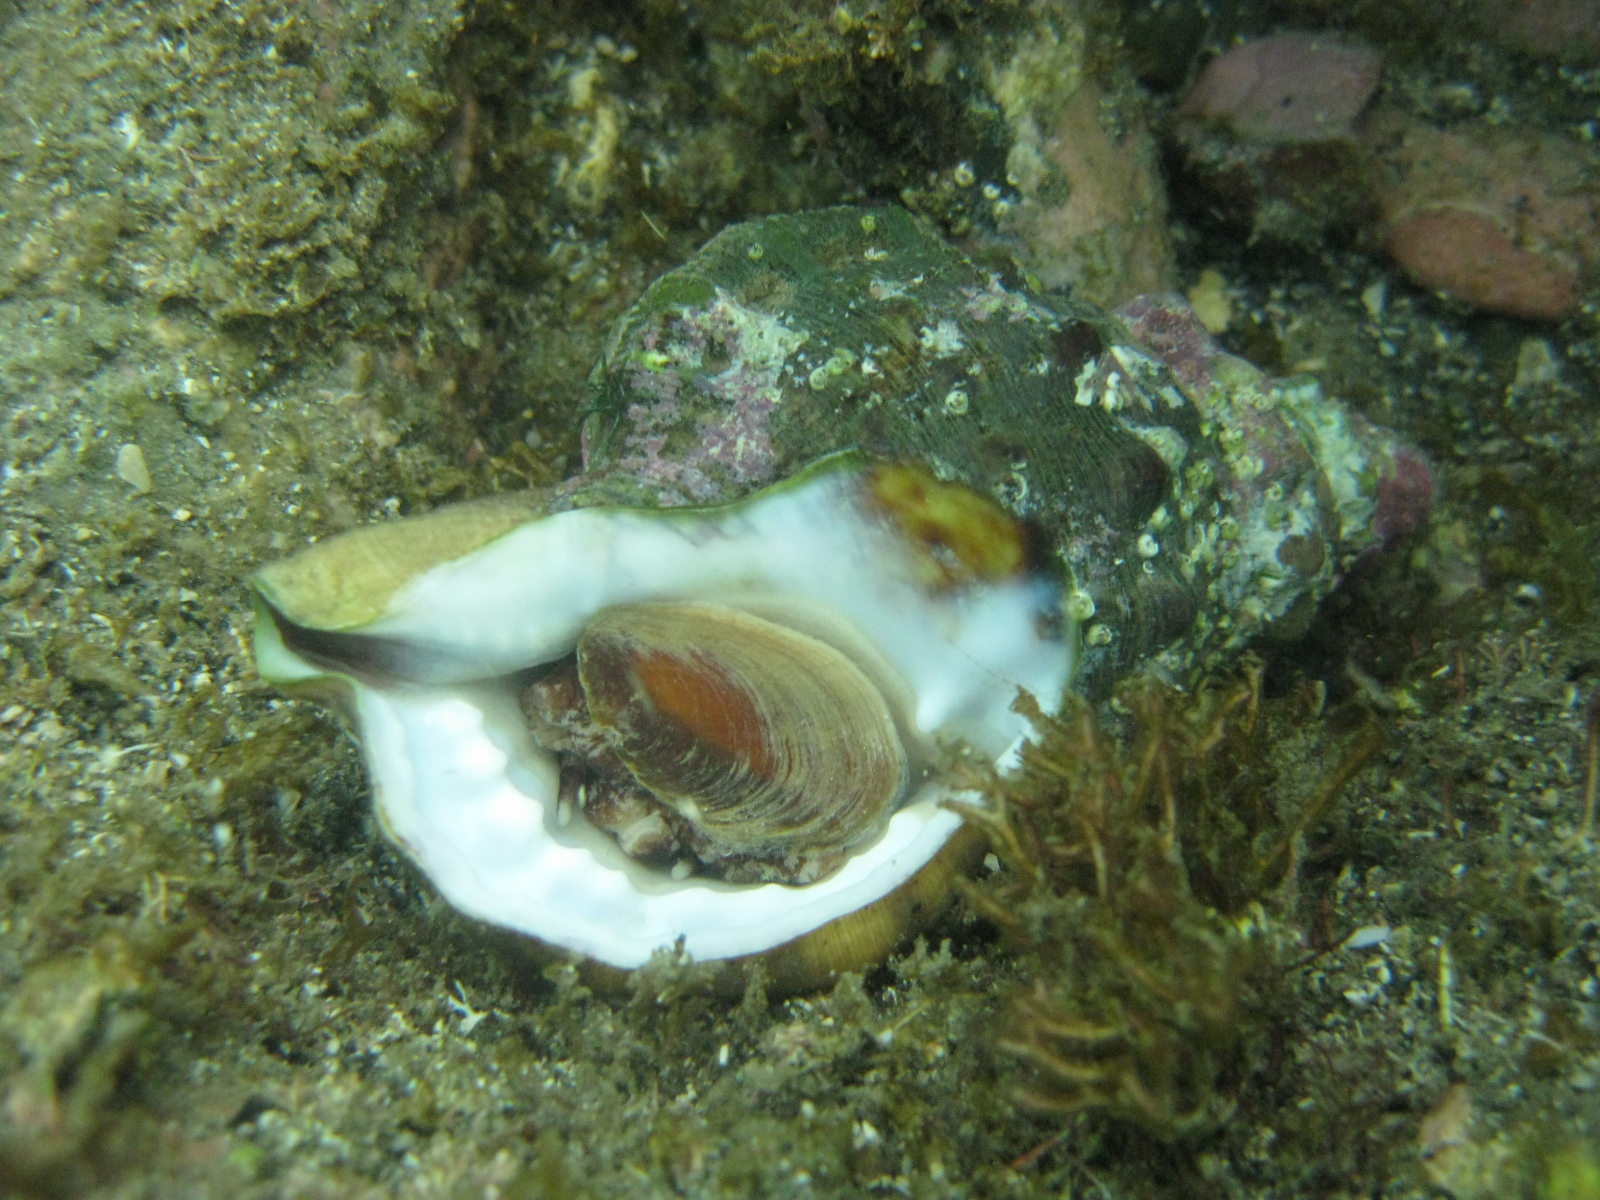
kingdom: Animalia
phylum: Mollusca
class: Gastropoda
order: Littorinimorpha
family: Ranellidae
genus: Ranella
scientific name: Ranella australasia
